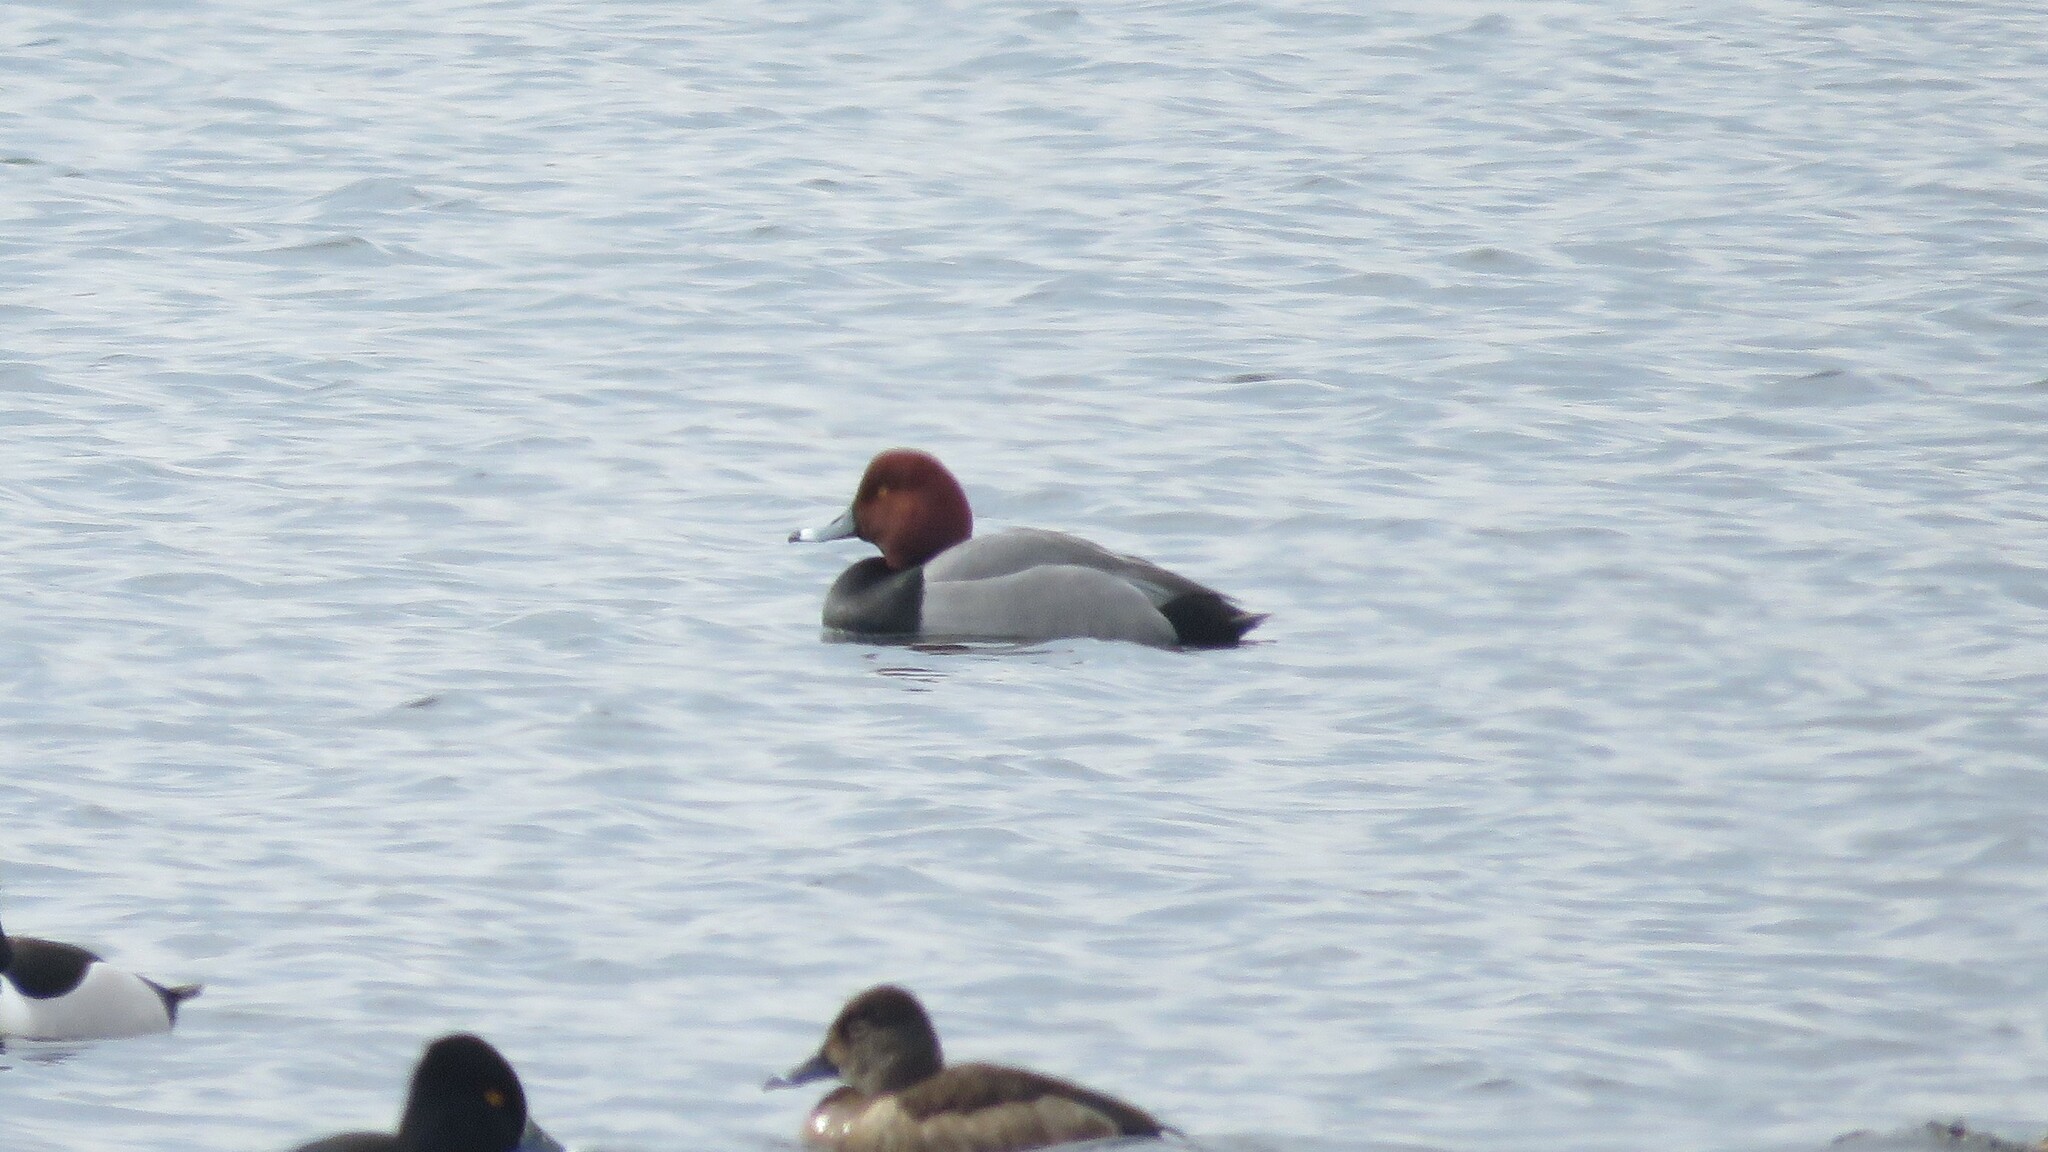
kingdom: Animalia
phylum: Chordata
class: Aves
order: Anseriformes
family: Anatidae
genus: Aythya
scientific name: Aythya americana
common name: Redhead
